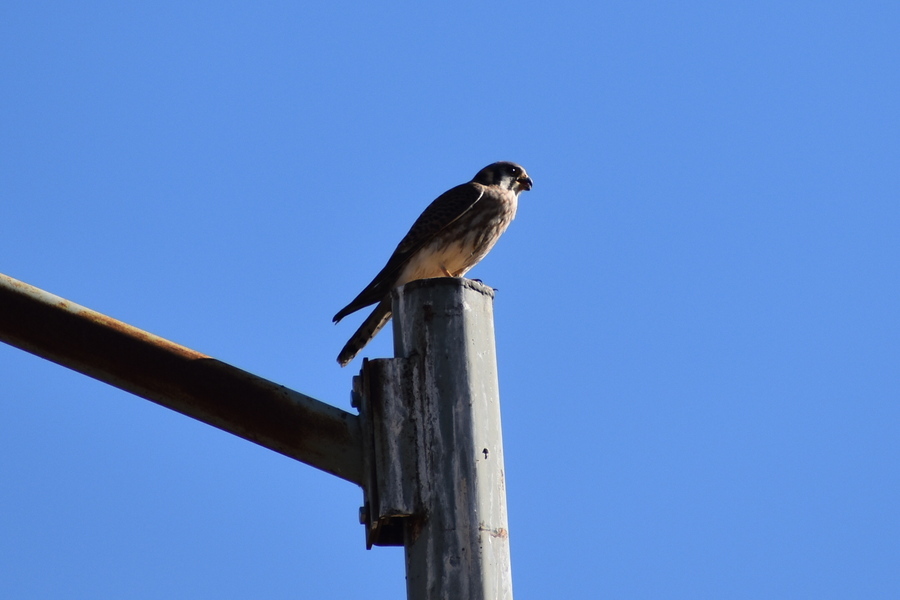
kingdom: Animalia
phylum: Chordata
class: Aves
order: Falconiformes
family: Falconidae
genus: Falco
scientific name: Falco sparverius
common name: American kestrel
